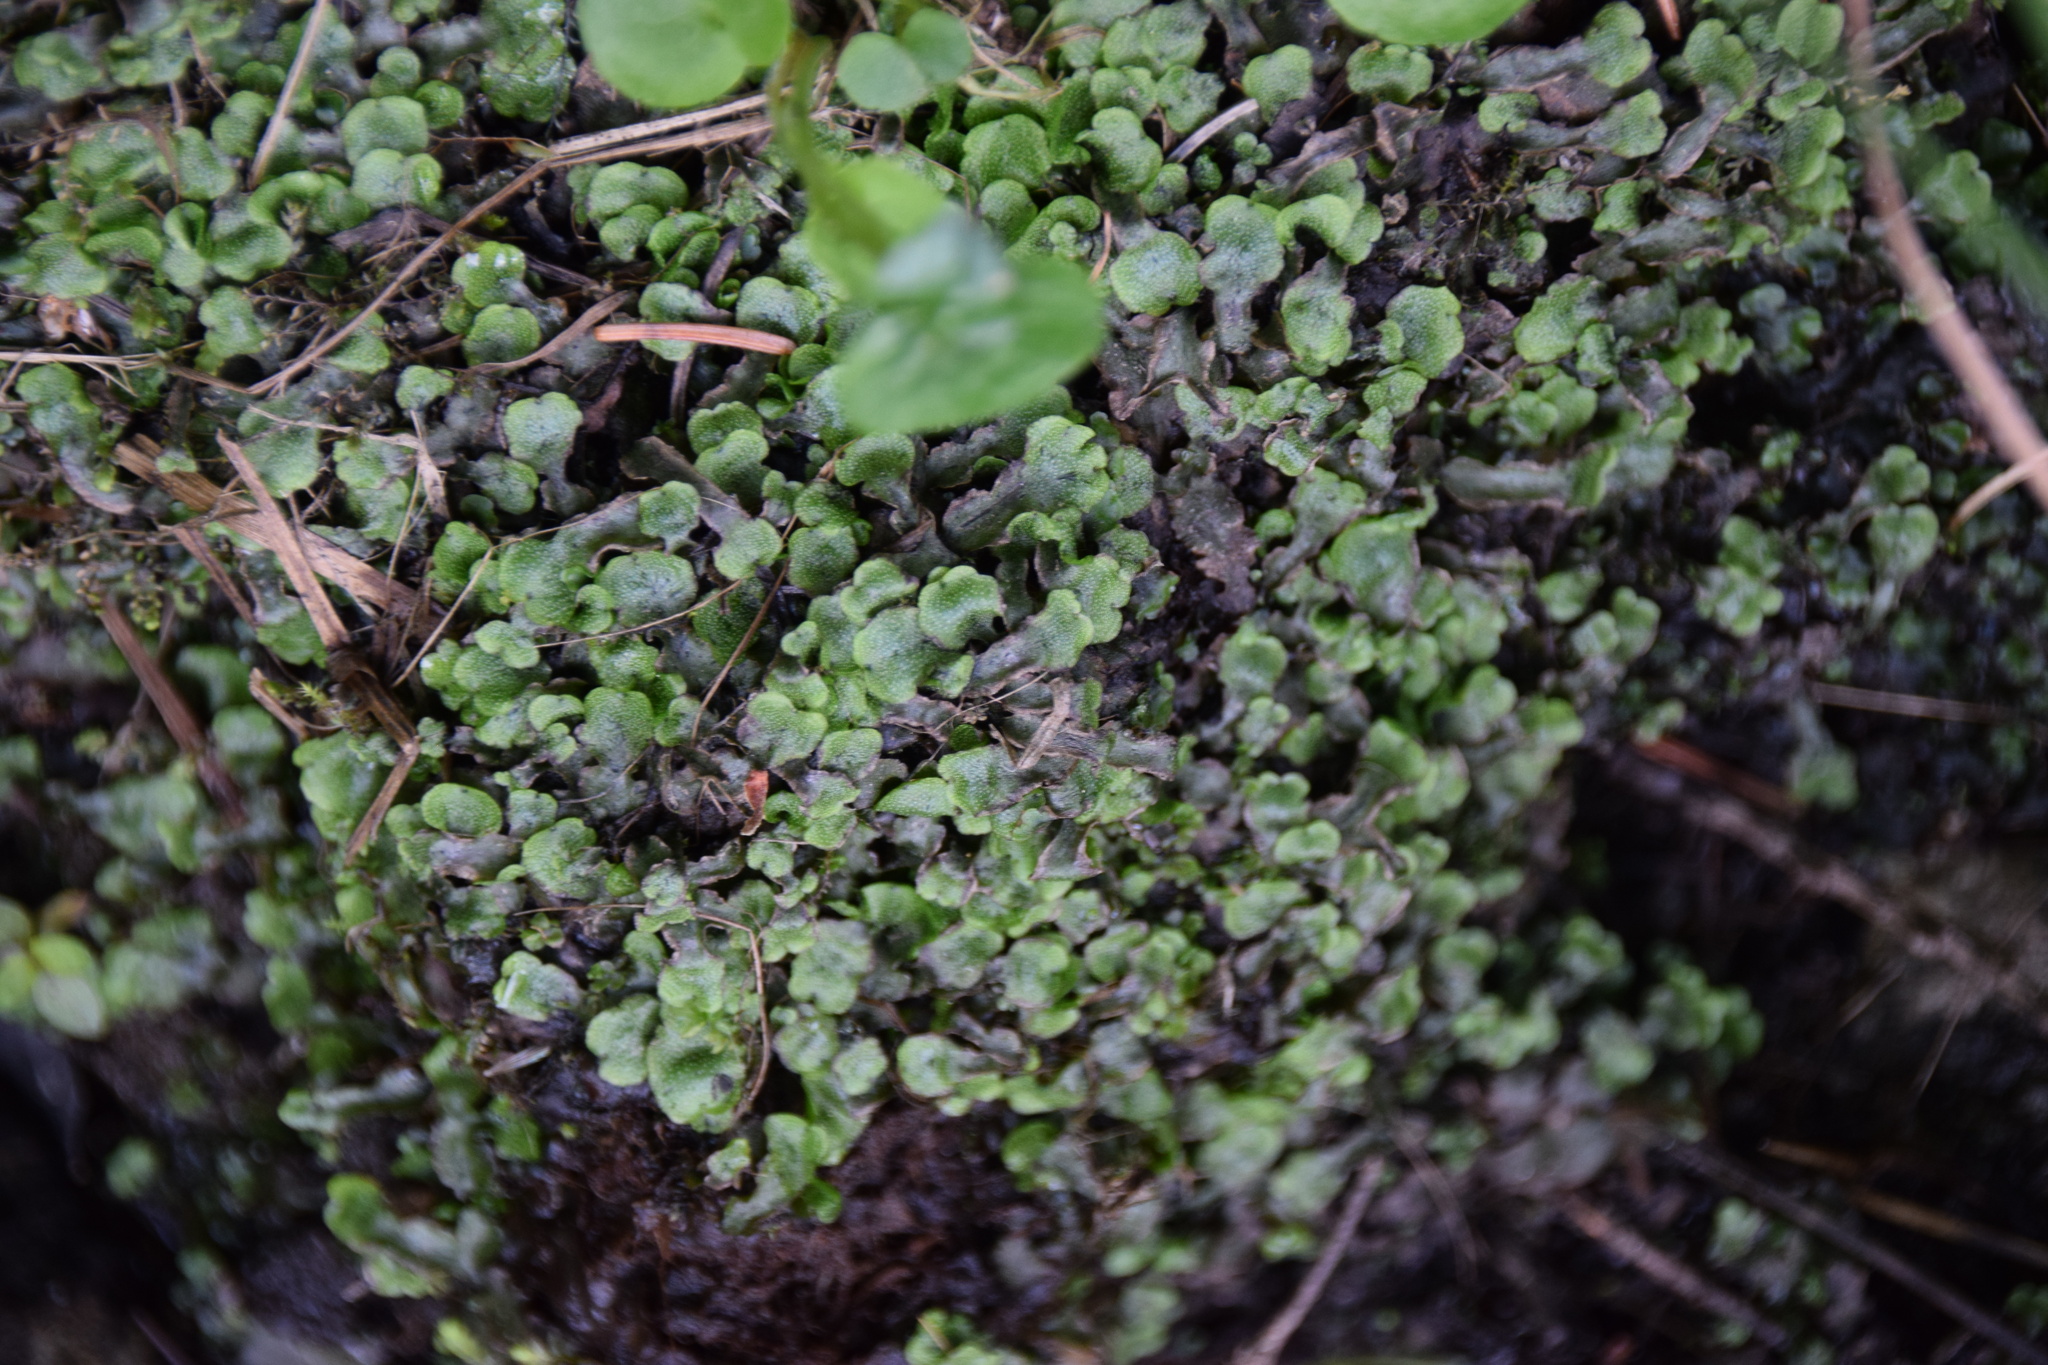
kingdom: Plantae
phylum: Marchantiophyta
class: Marchantiopsida
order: Marchantiales
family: Marchantiaceae
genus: Marchantia
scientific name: Marchantia quadrata
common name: Narrow mushroom-headed liverwort
